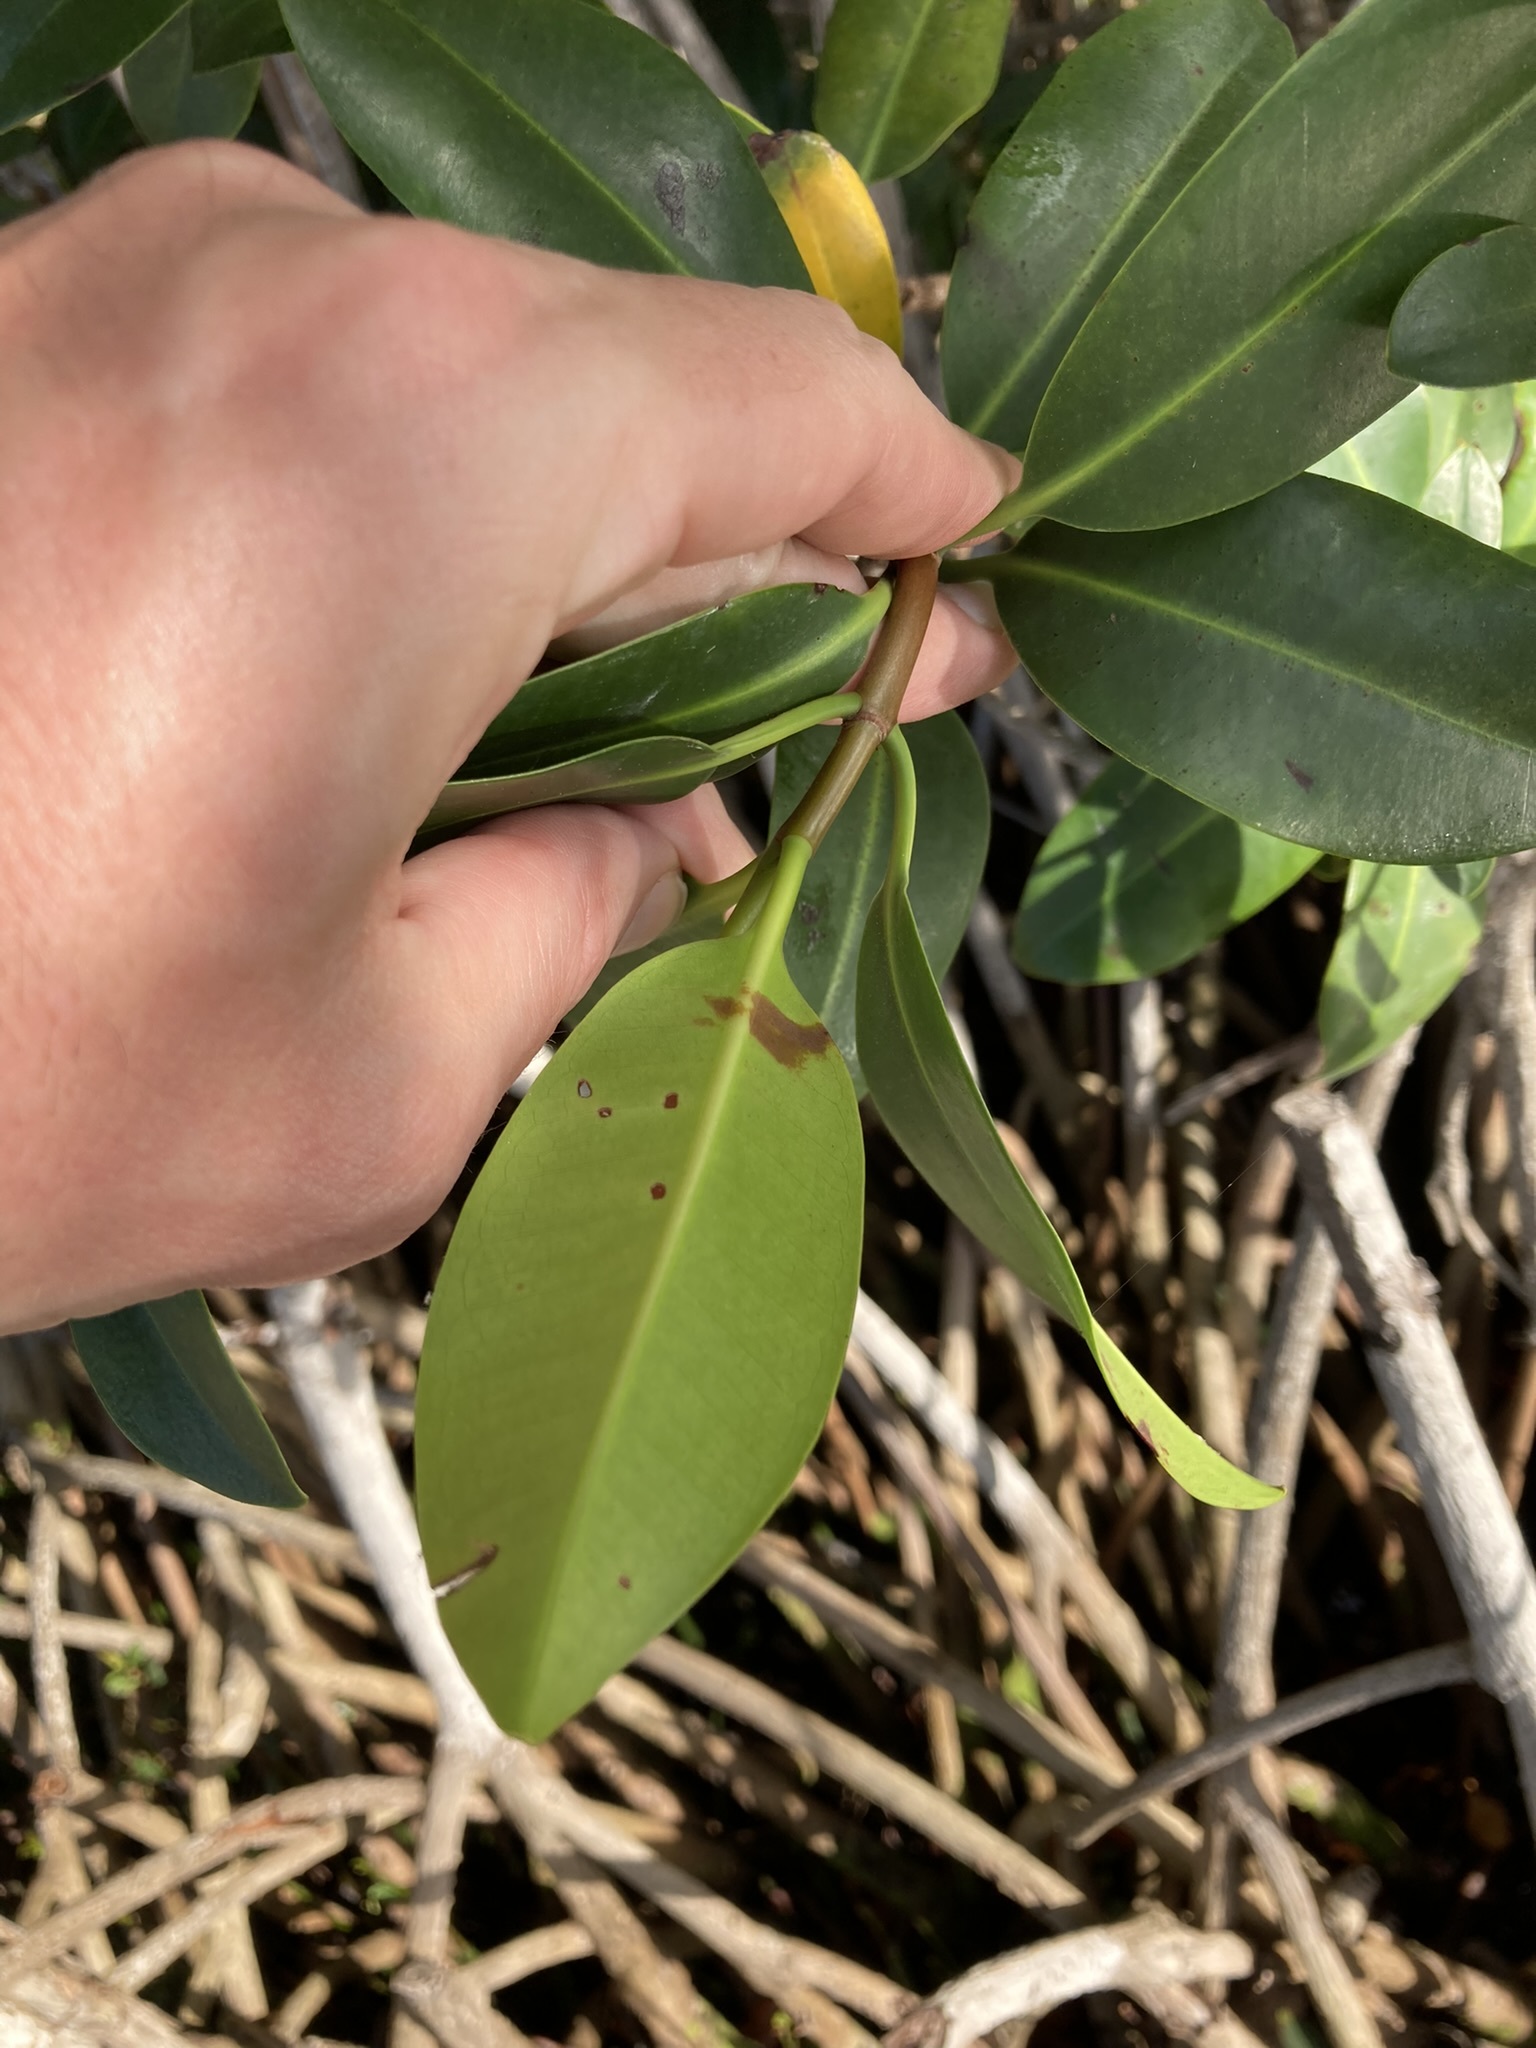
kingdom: Plantae
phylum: Tracheophyta
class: Magnoliopsida
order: Malpighiales
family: Rhizophoraceae
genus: Rhizophora
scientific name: Rhizophora mangle
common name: Red mangrove
